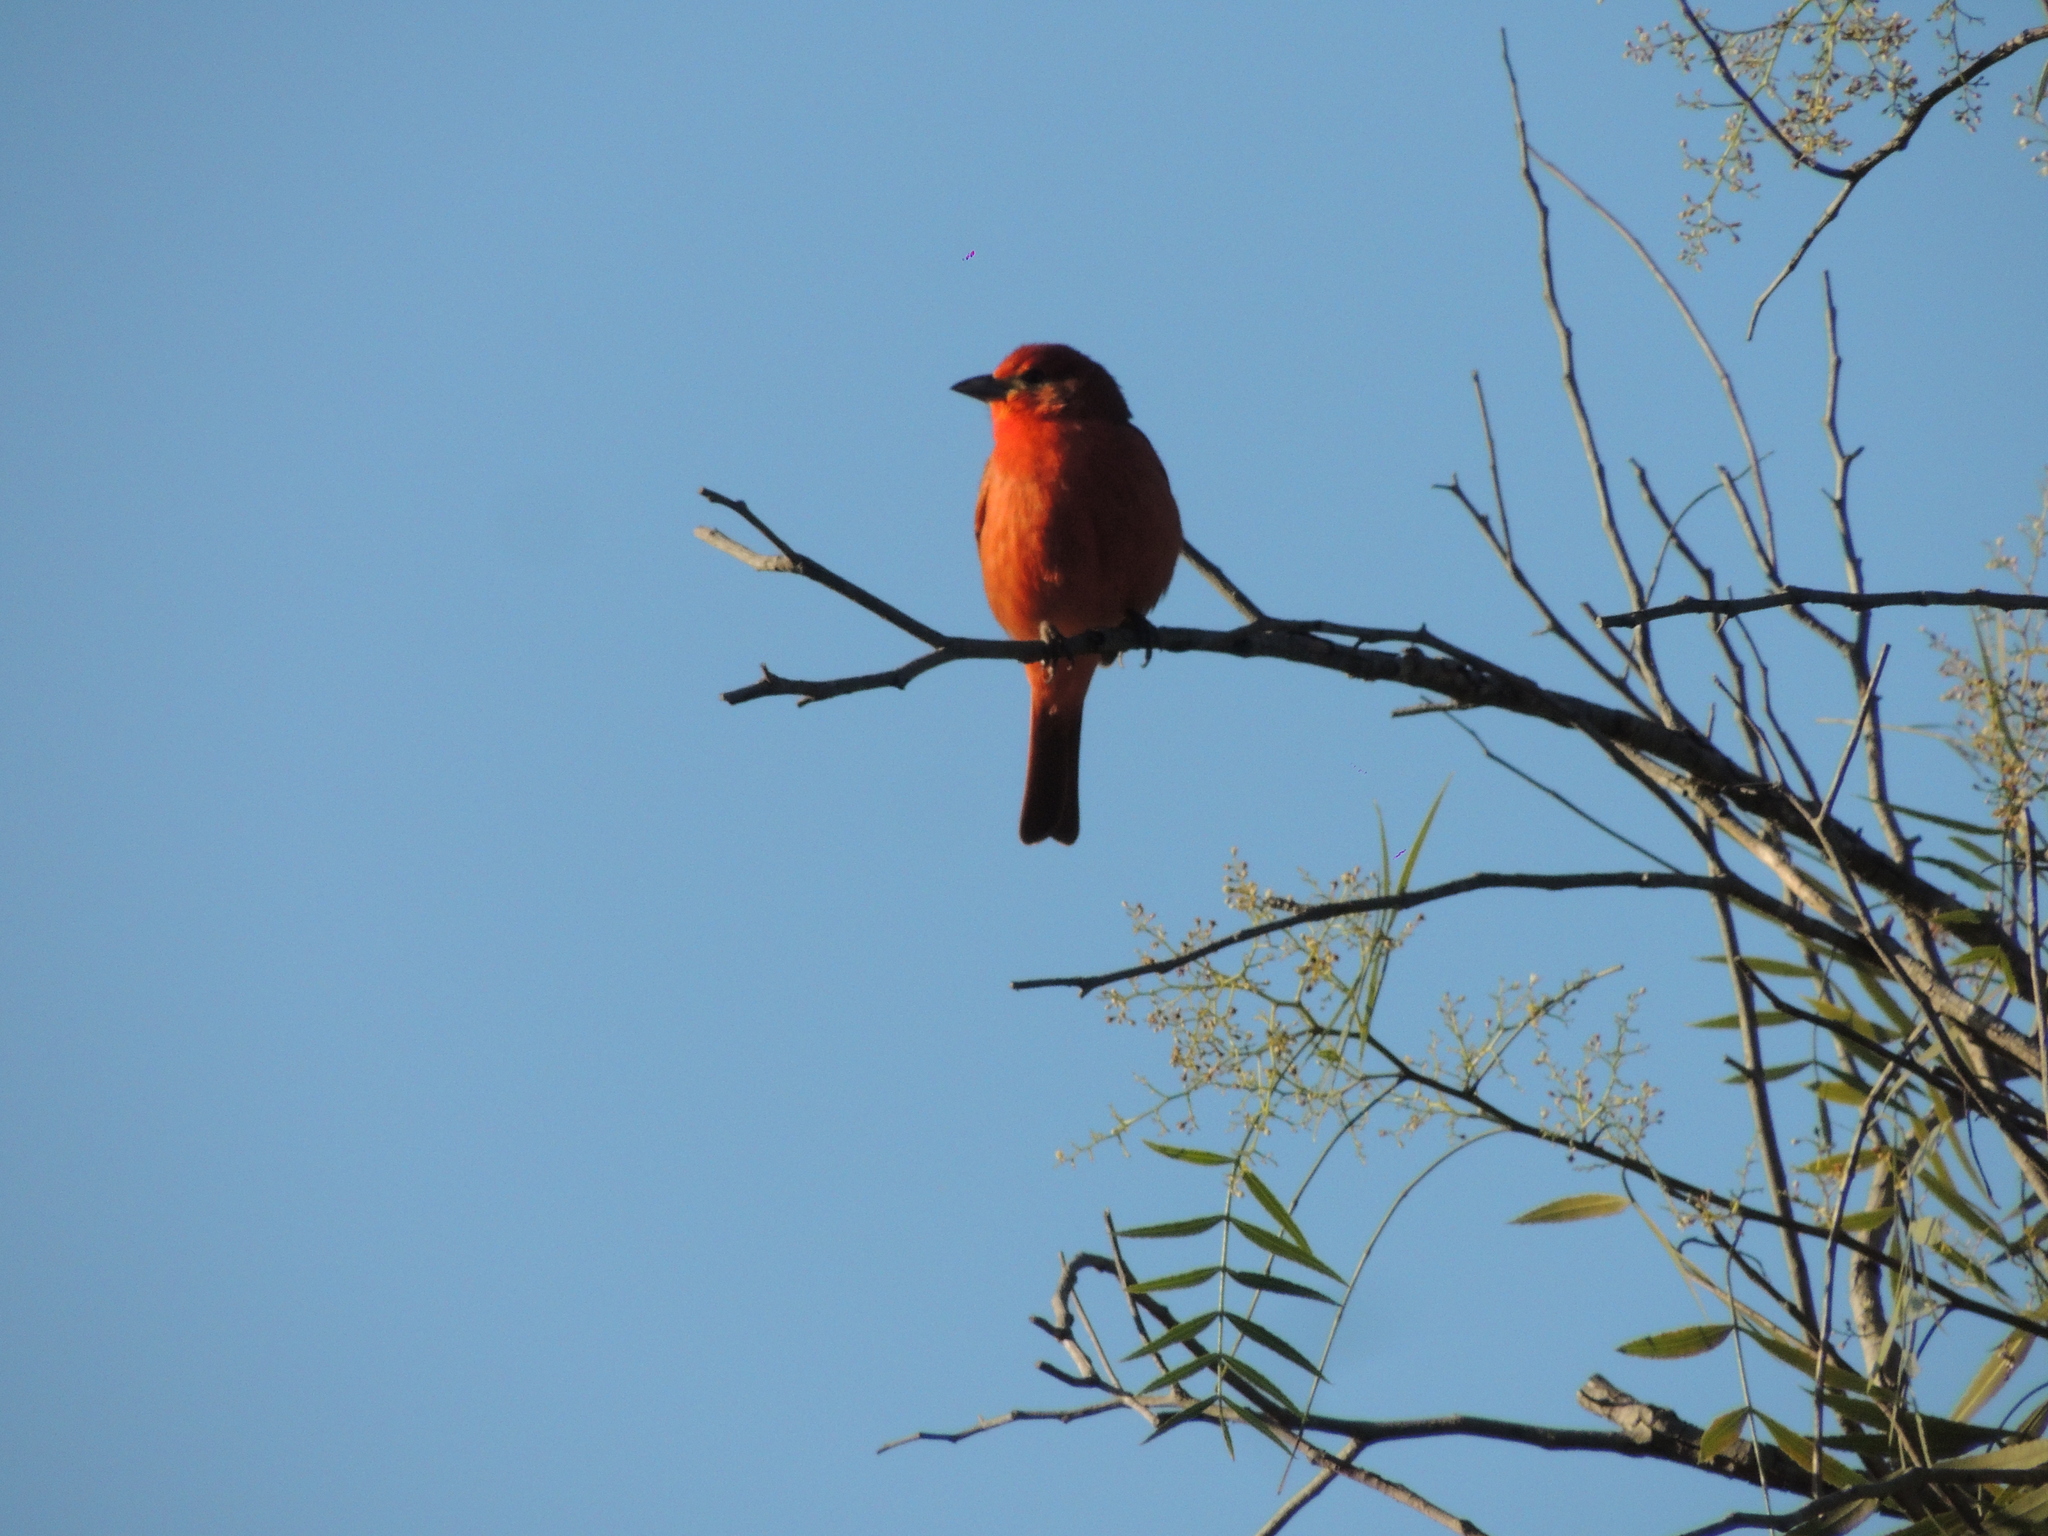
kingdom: Animalia
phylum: Chordata
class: Aves
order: Passeriformes
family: Cardinalidae
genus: Piranga
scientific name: Piranga flava
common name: Red tanager
